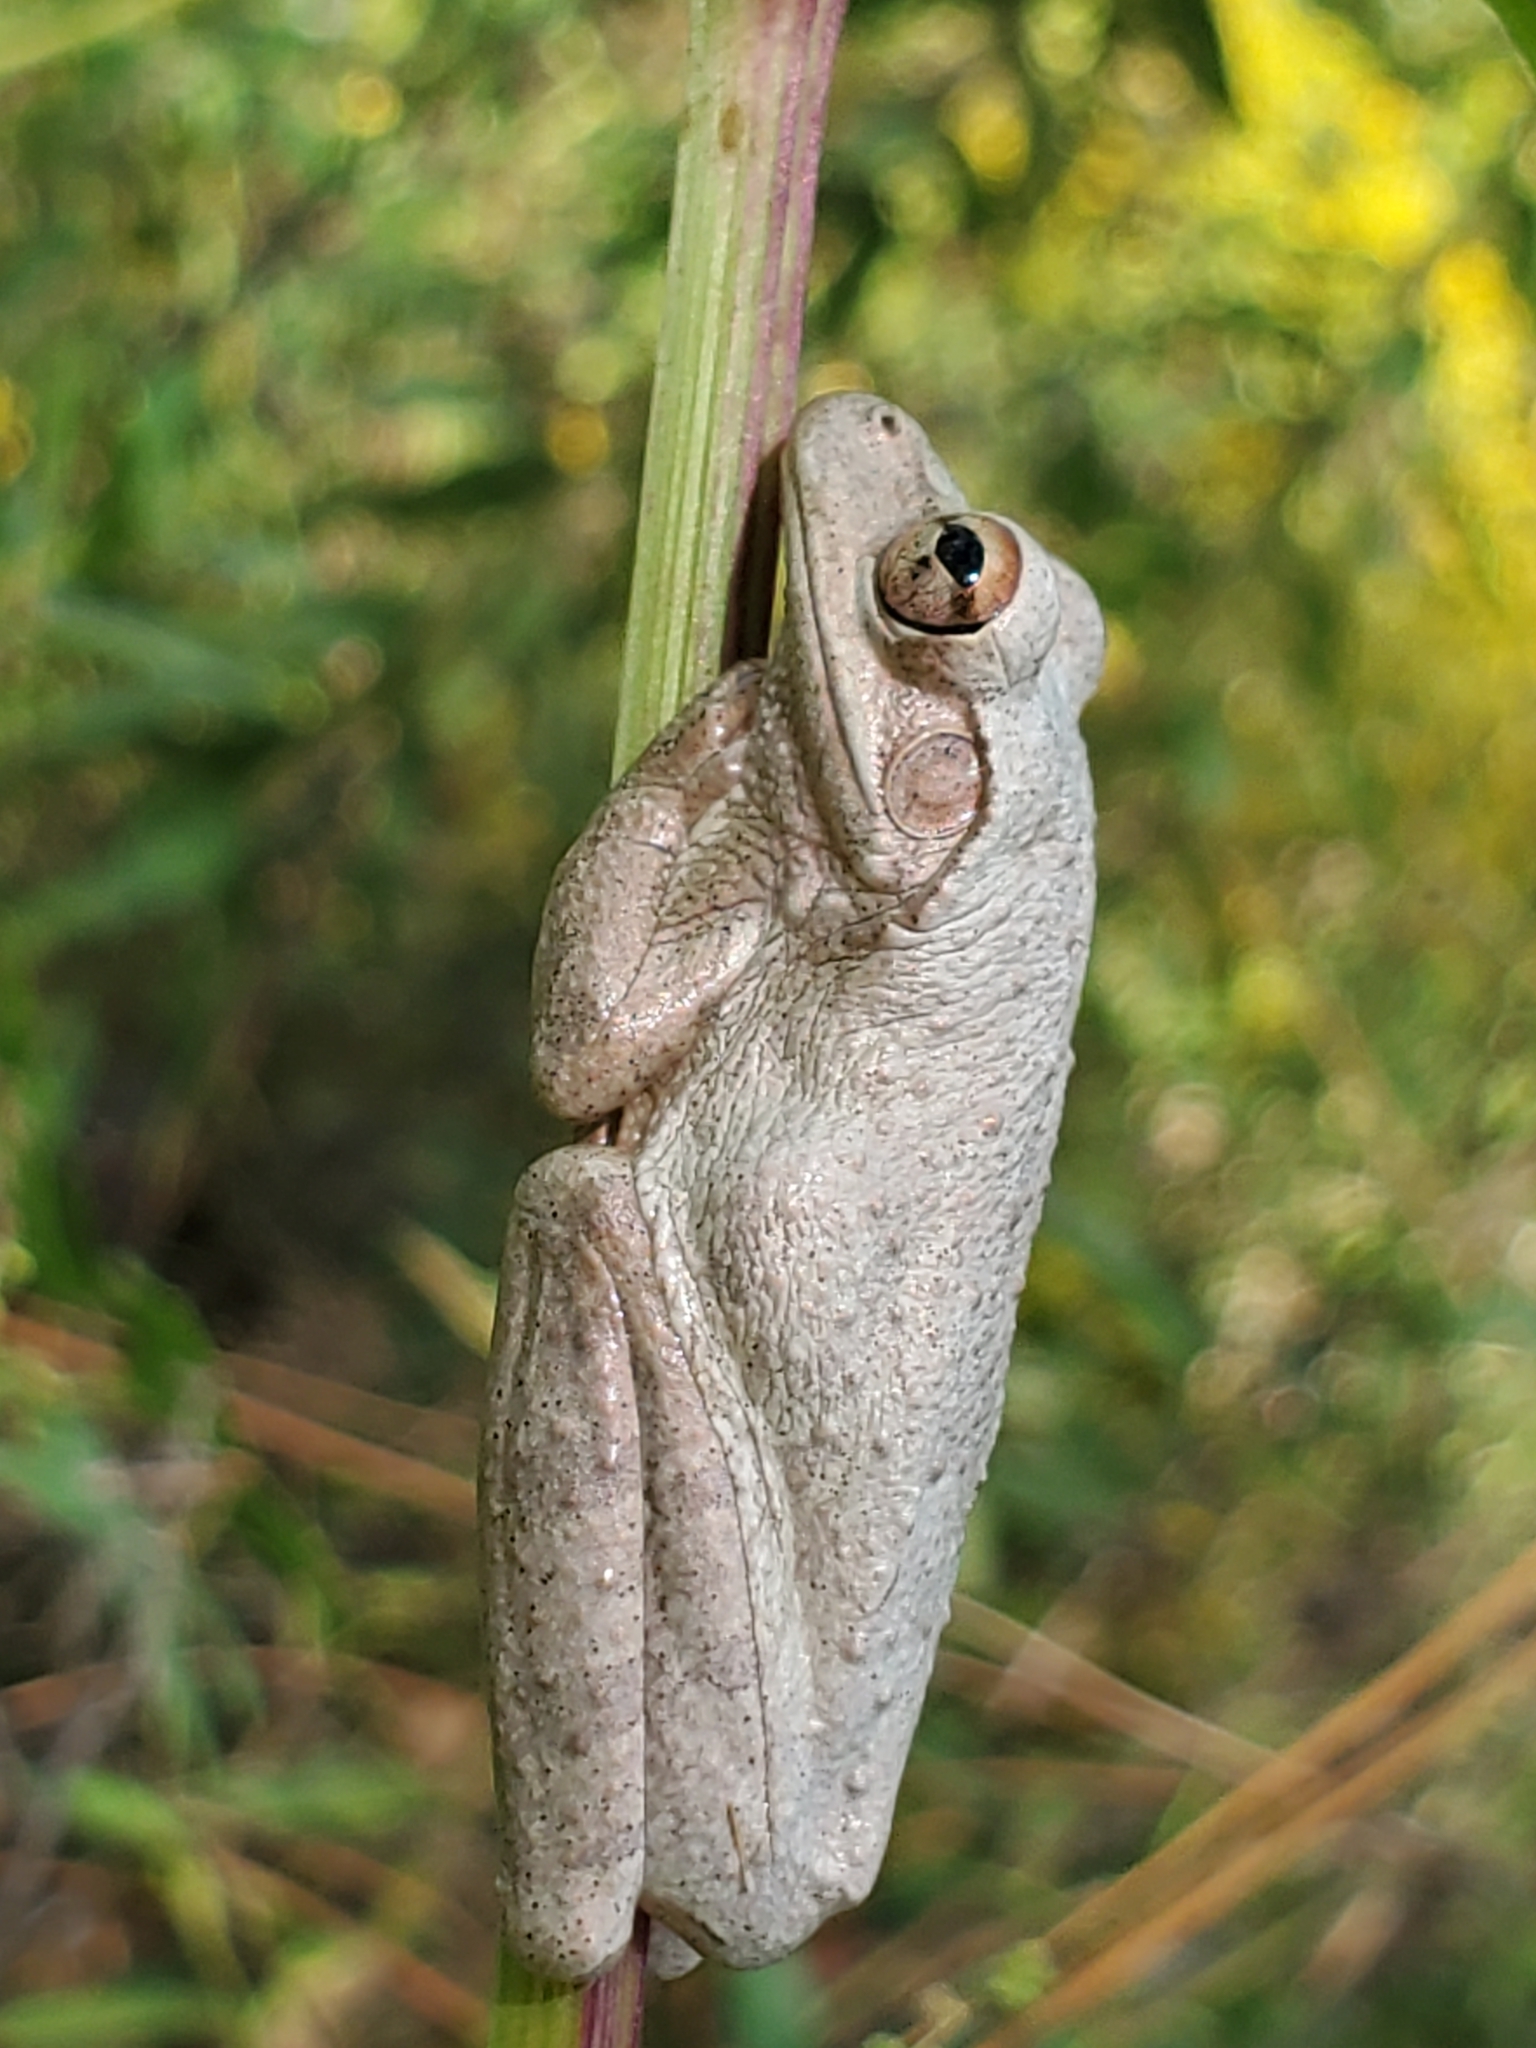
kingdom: Animalia
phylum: Chordata
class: Amphibia
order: Anura
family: Hylidae
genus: Osteopilus
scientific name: Osteopilus septentrionalis
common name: Cuban treefrog
